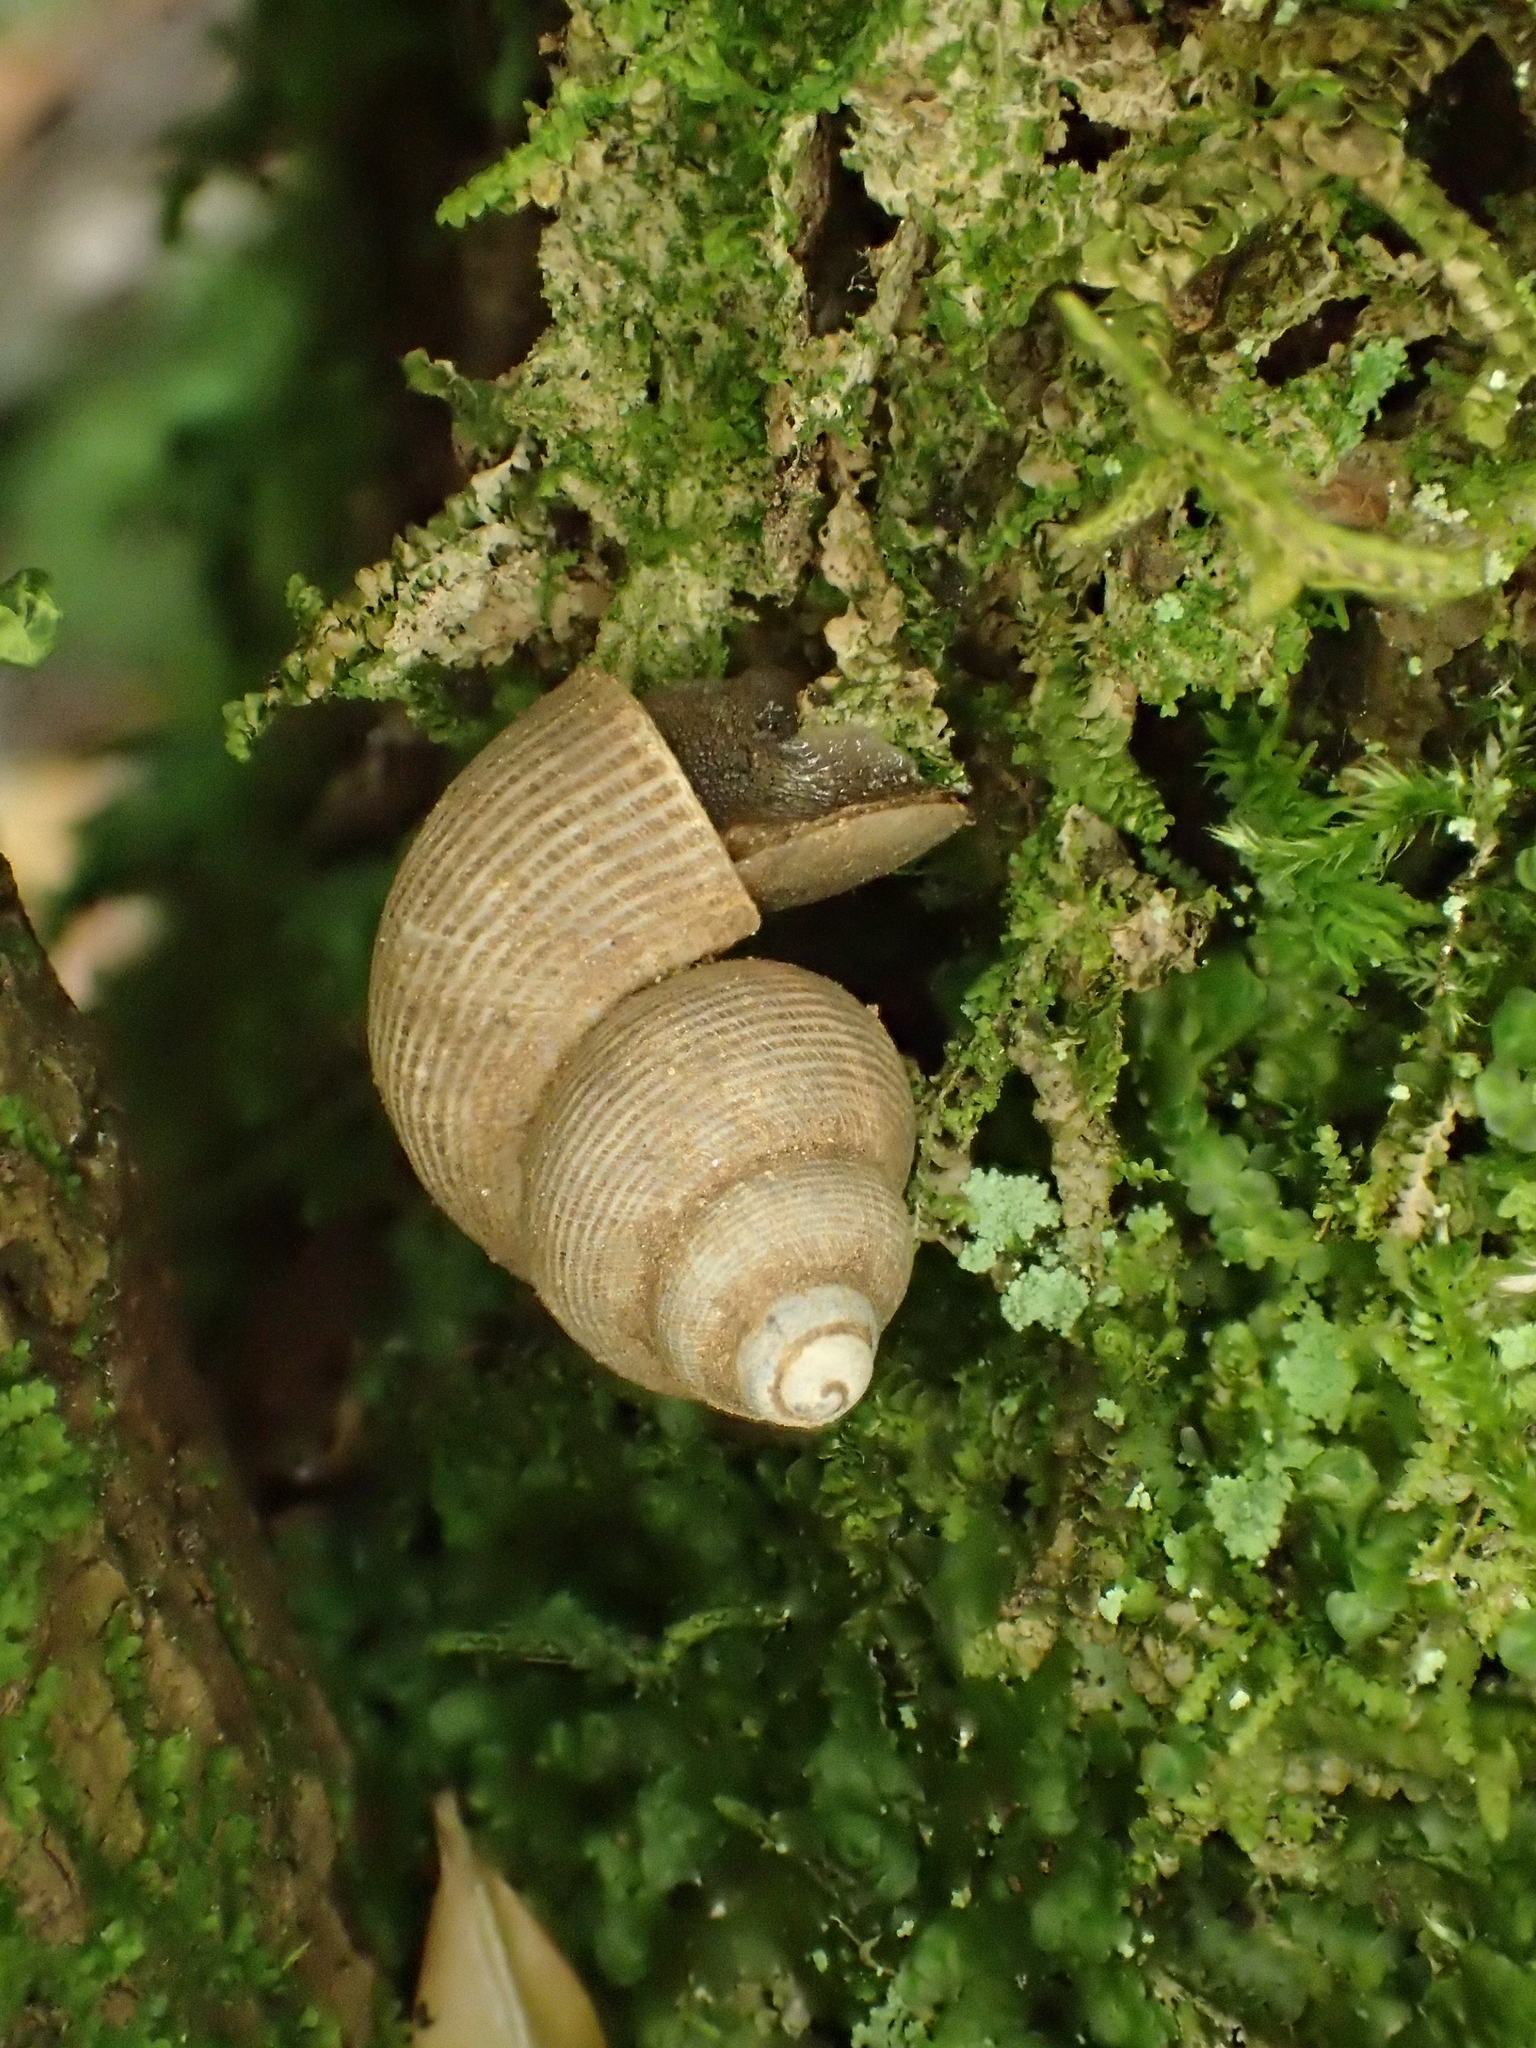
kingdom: Animalia
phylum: Mollusca
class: Gastropoda
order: Littorinimorpha
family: Pomatiidae
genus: Pomatias
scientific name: Pomatias elegans
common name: Red-mouthed snail
